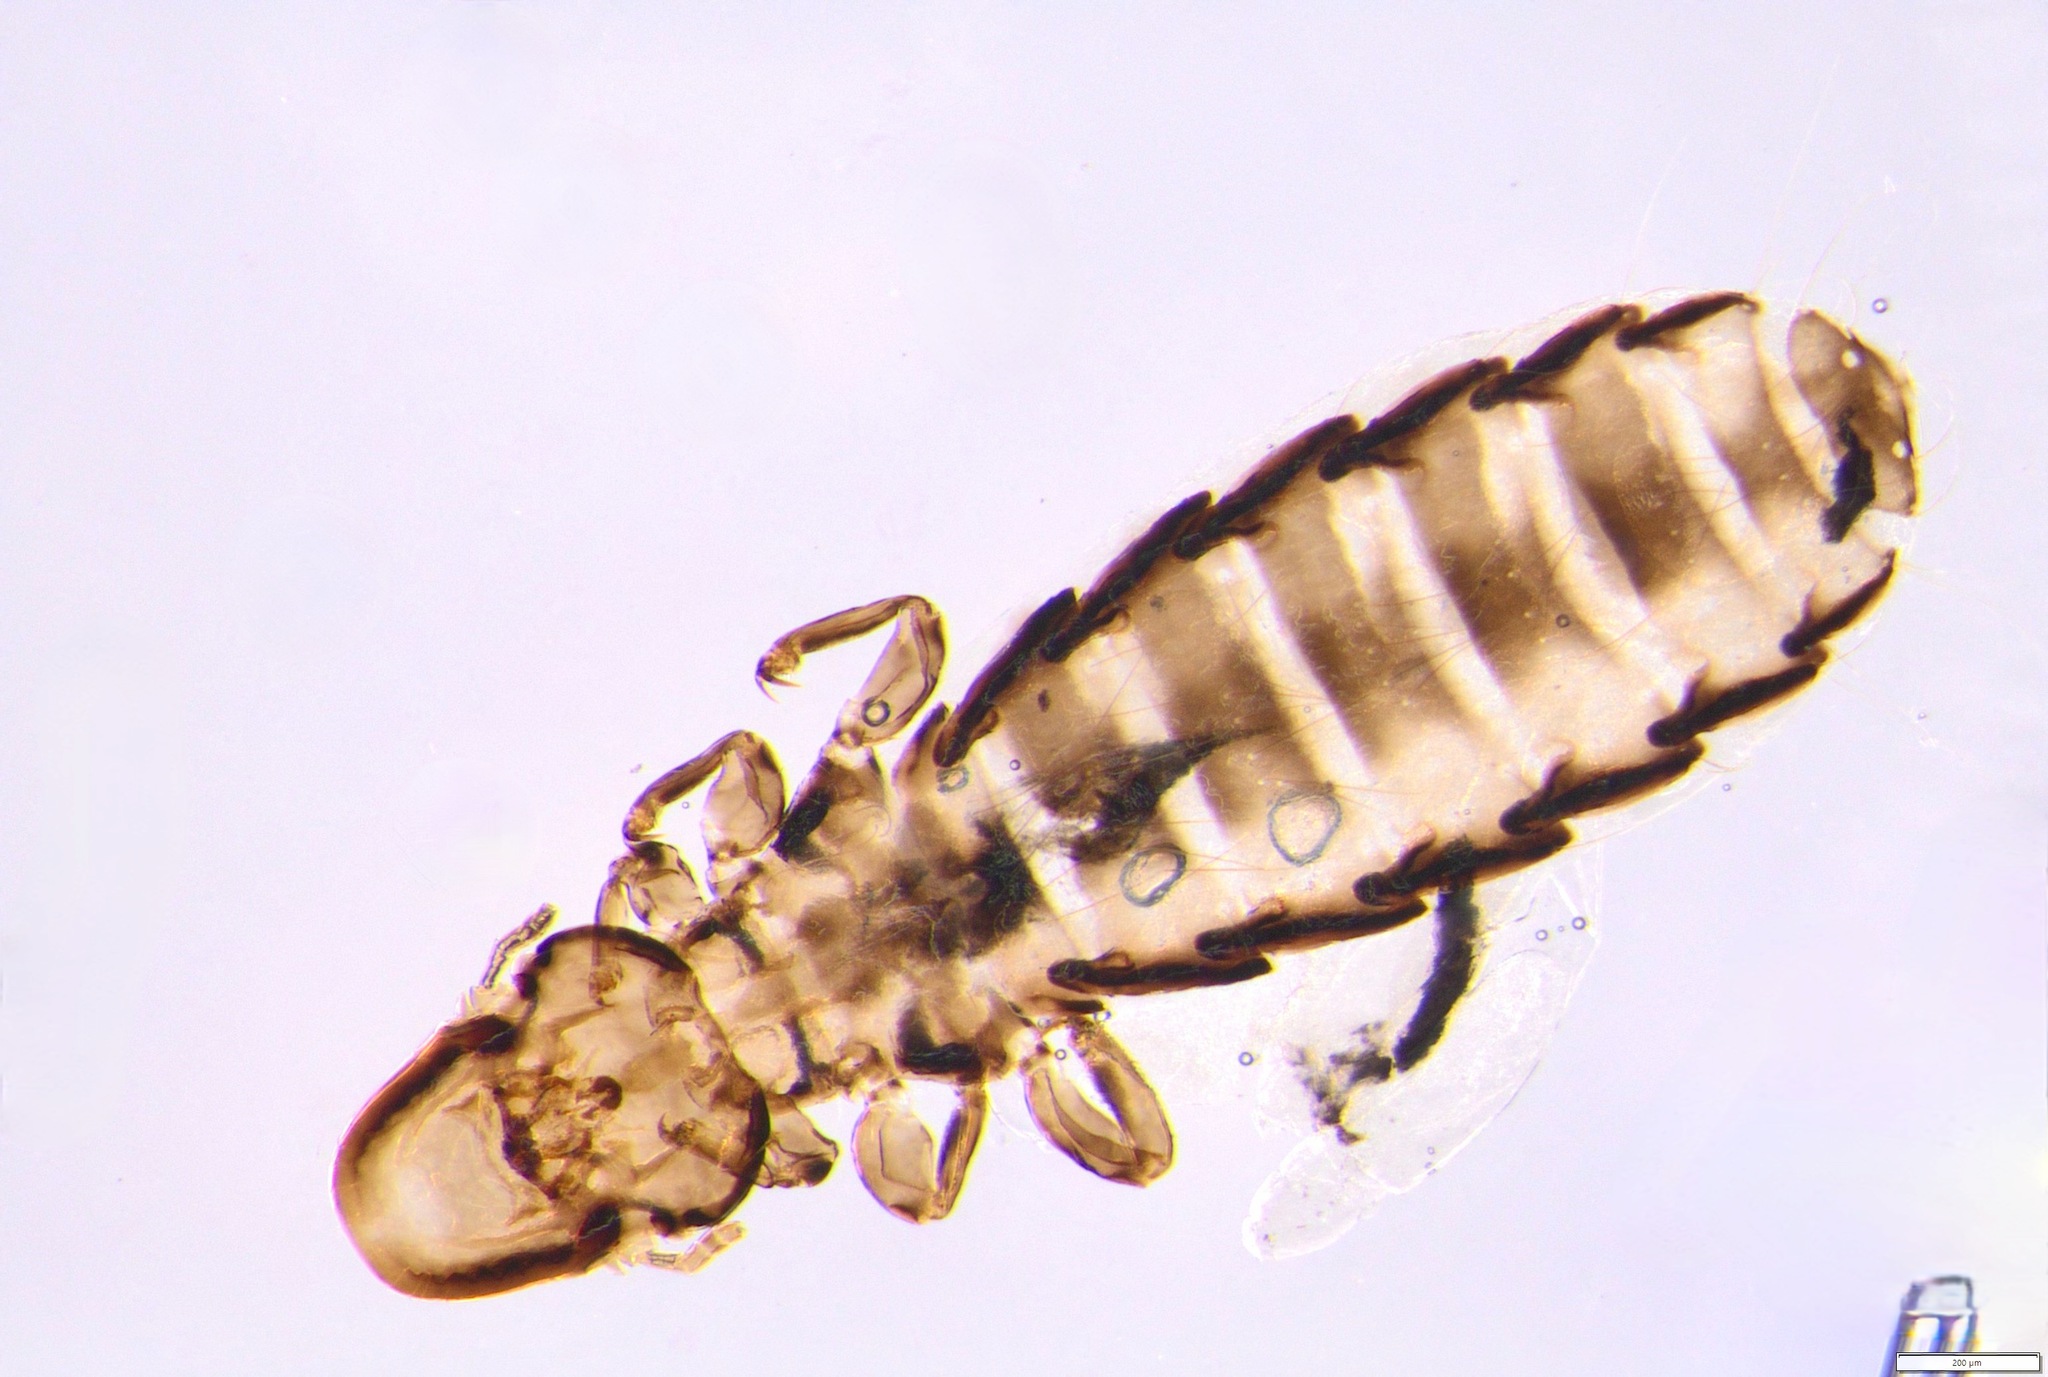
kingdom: Animalia
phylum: Arthropoda
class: Insecta
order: Psocodea
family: Philopteridae
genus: Degeeriella
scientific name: Degeeriella fusca
